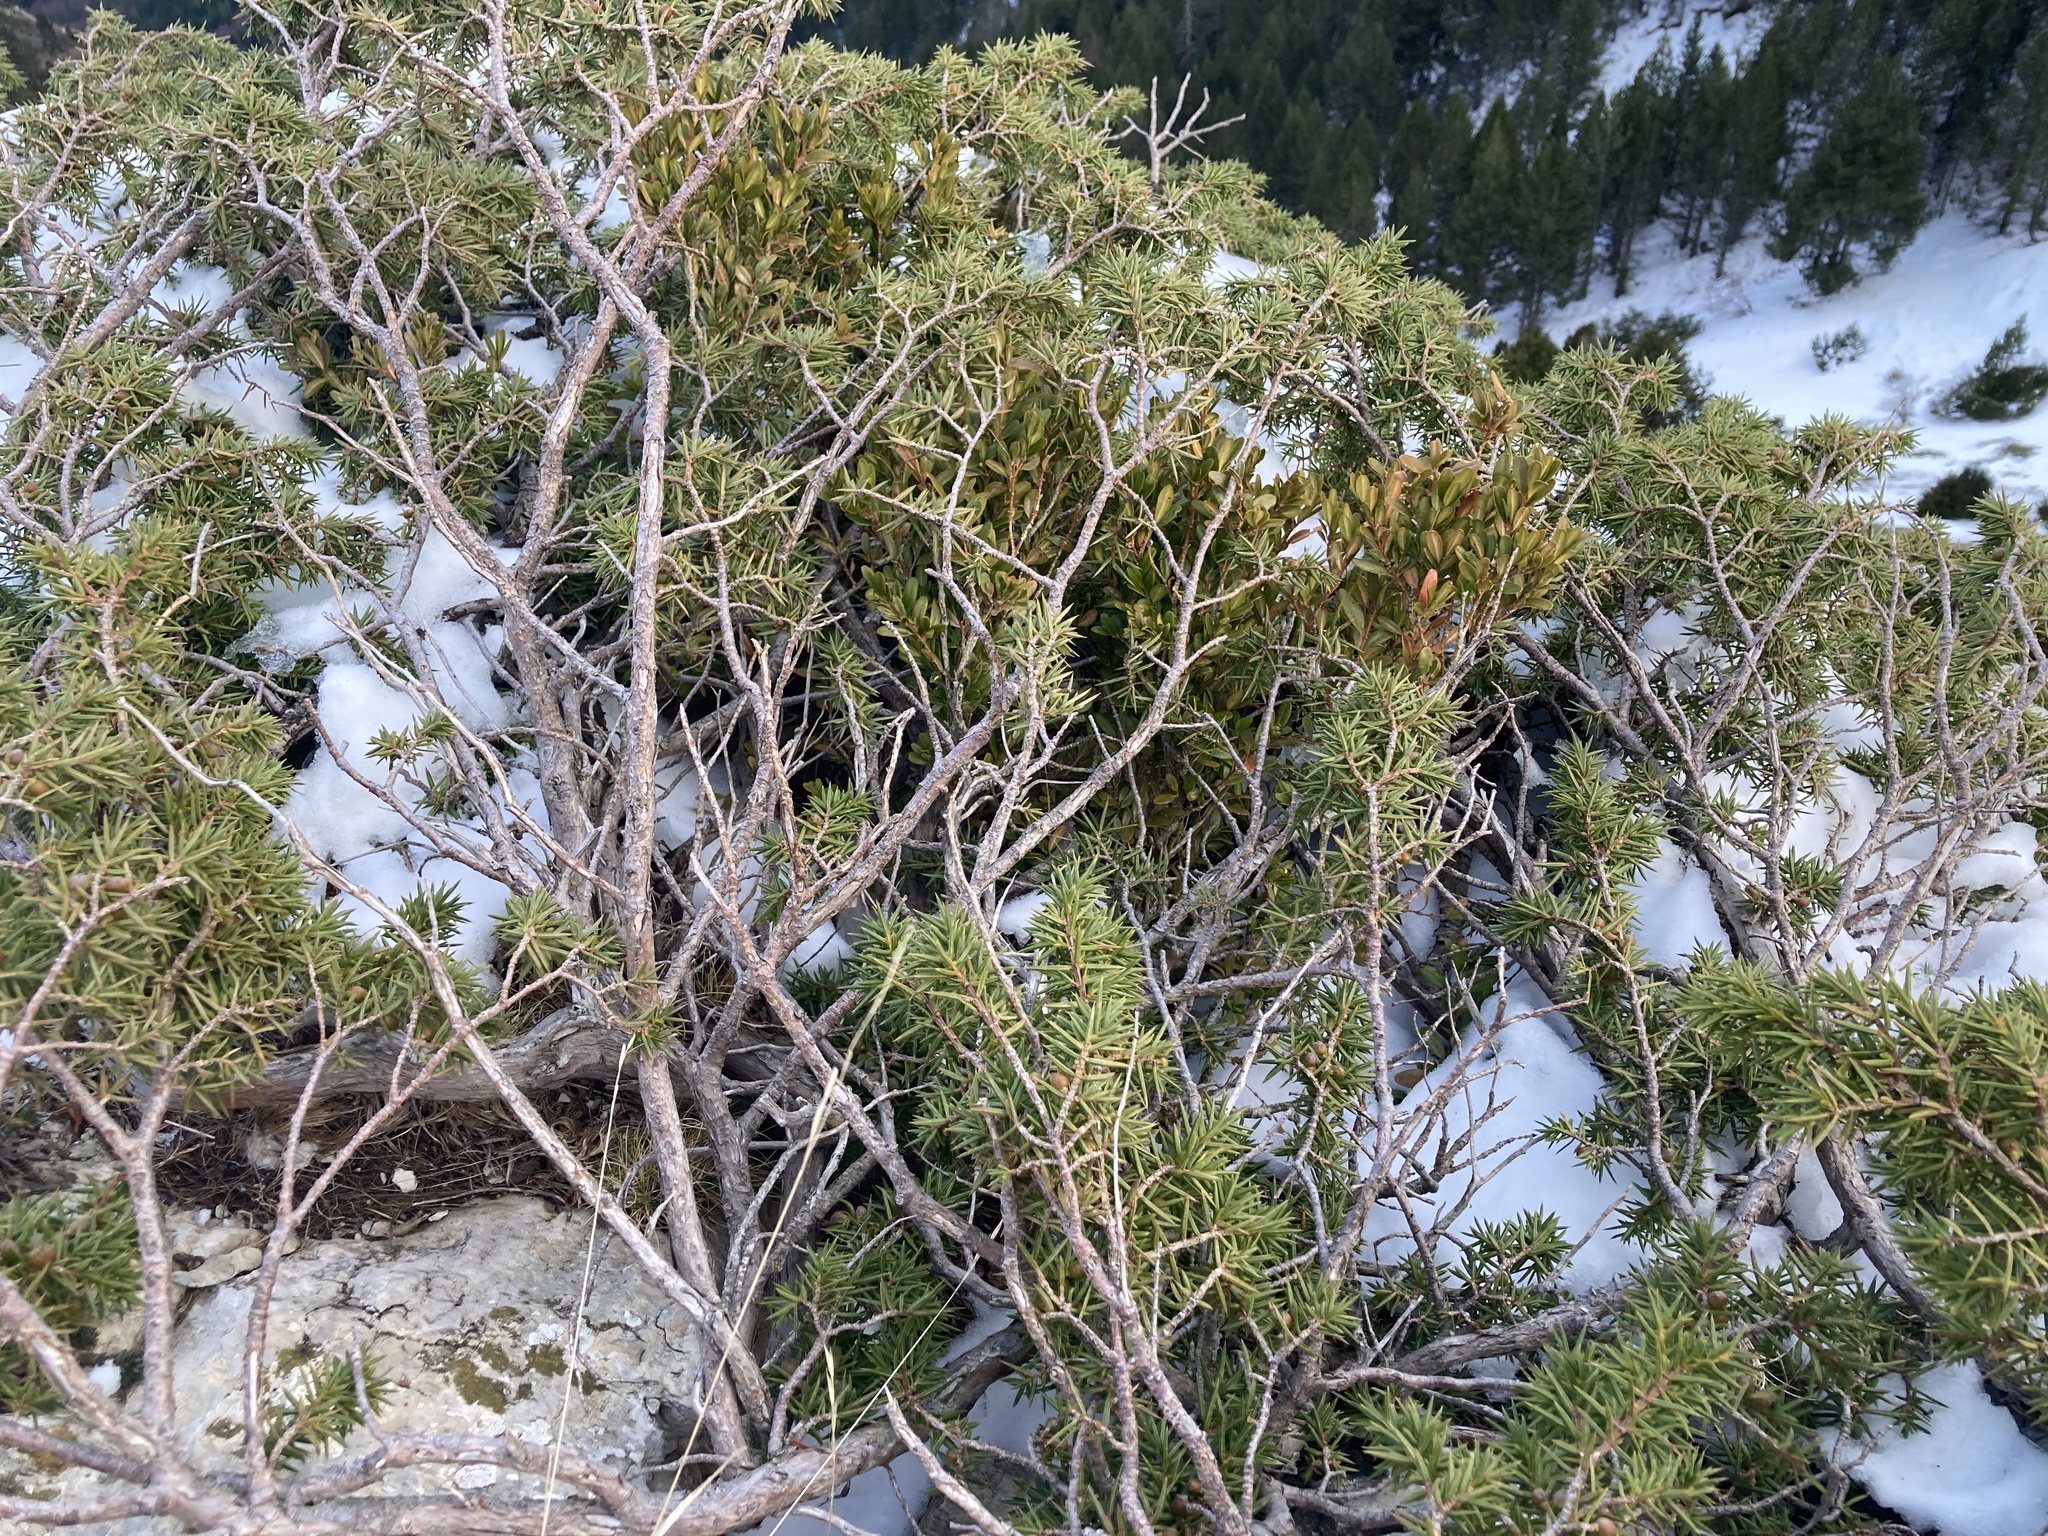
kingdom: Plantae
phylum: Tracheophyta
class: Pinopsida
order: Pinales
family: Cupressaceae
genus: Juniperus
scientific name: Juniperus communis
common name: Common juniper
